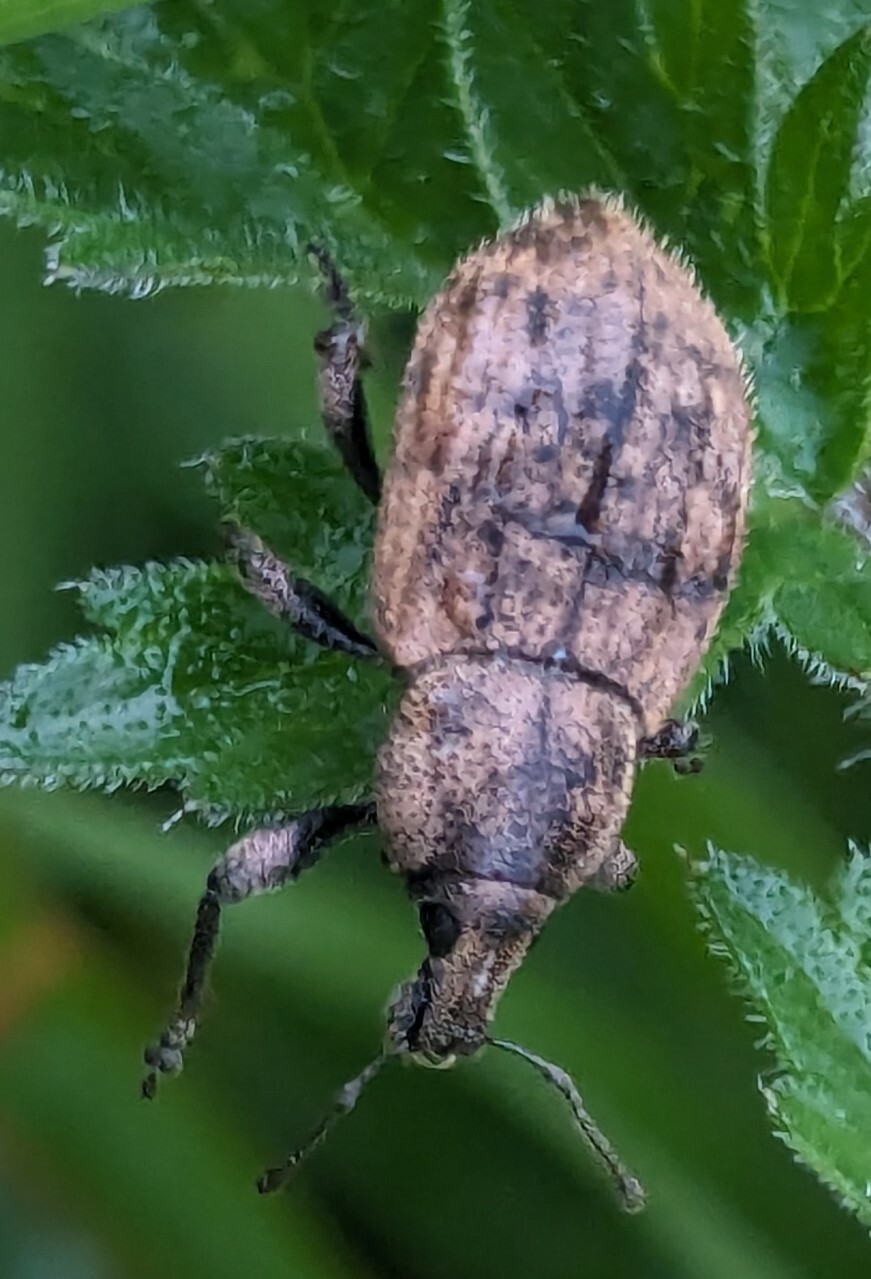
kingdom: Animalia
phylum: Arthropoda
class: Insecta
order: Coleoptera
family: Curculionidae
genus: Barynotus
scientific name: Barynotus obscurus
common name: Weevil
